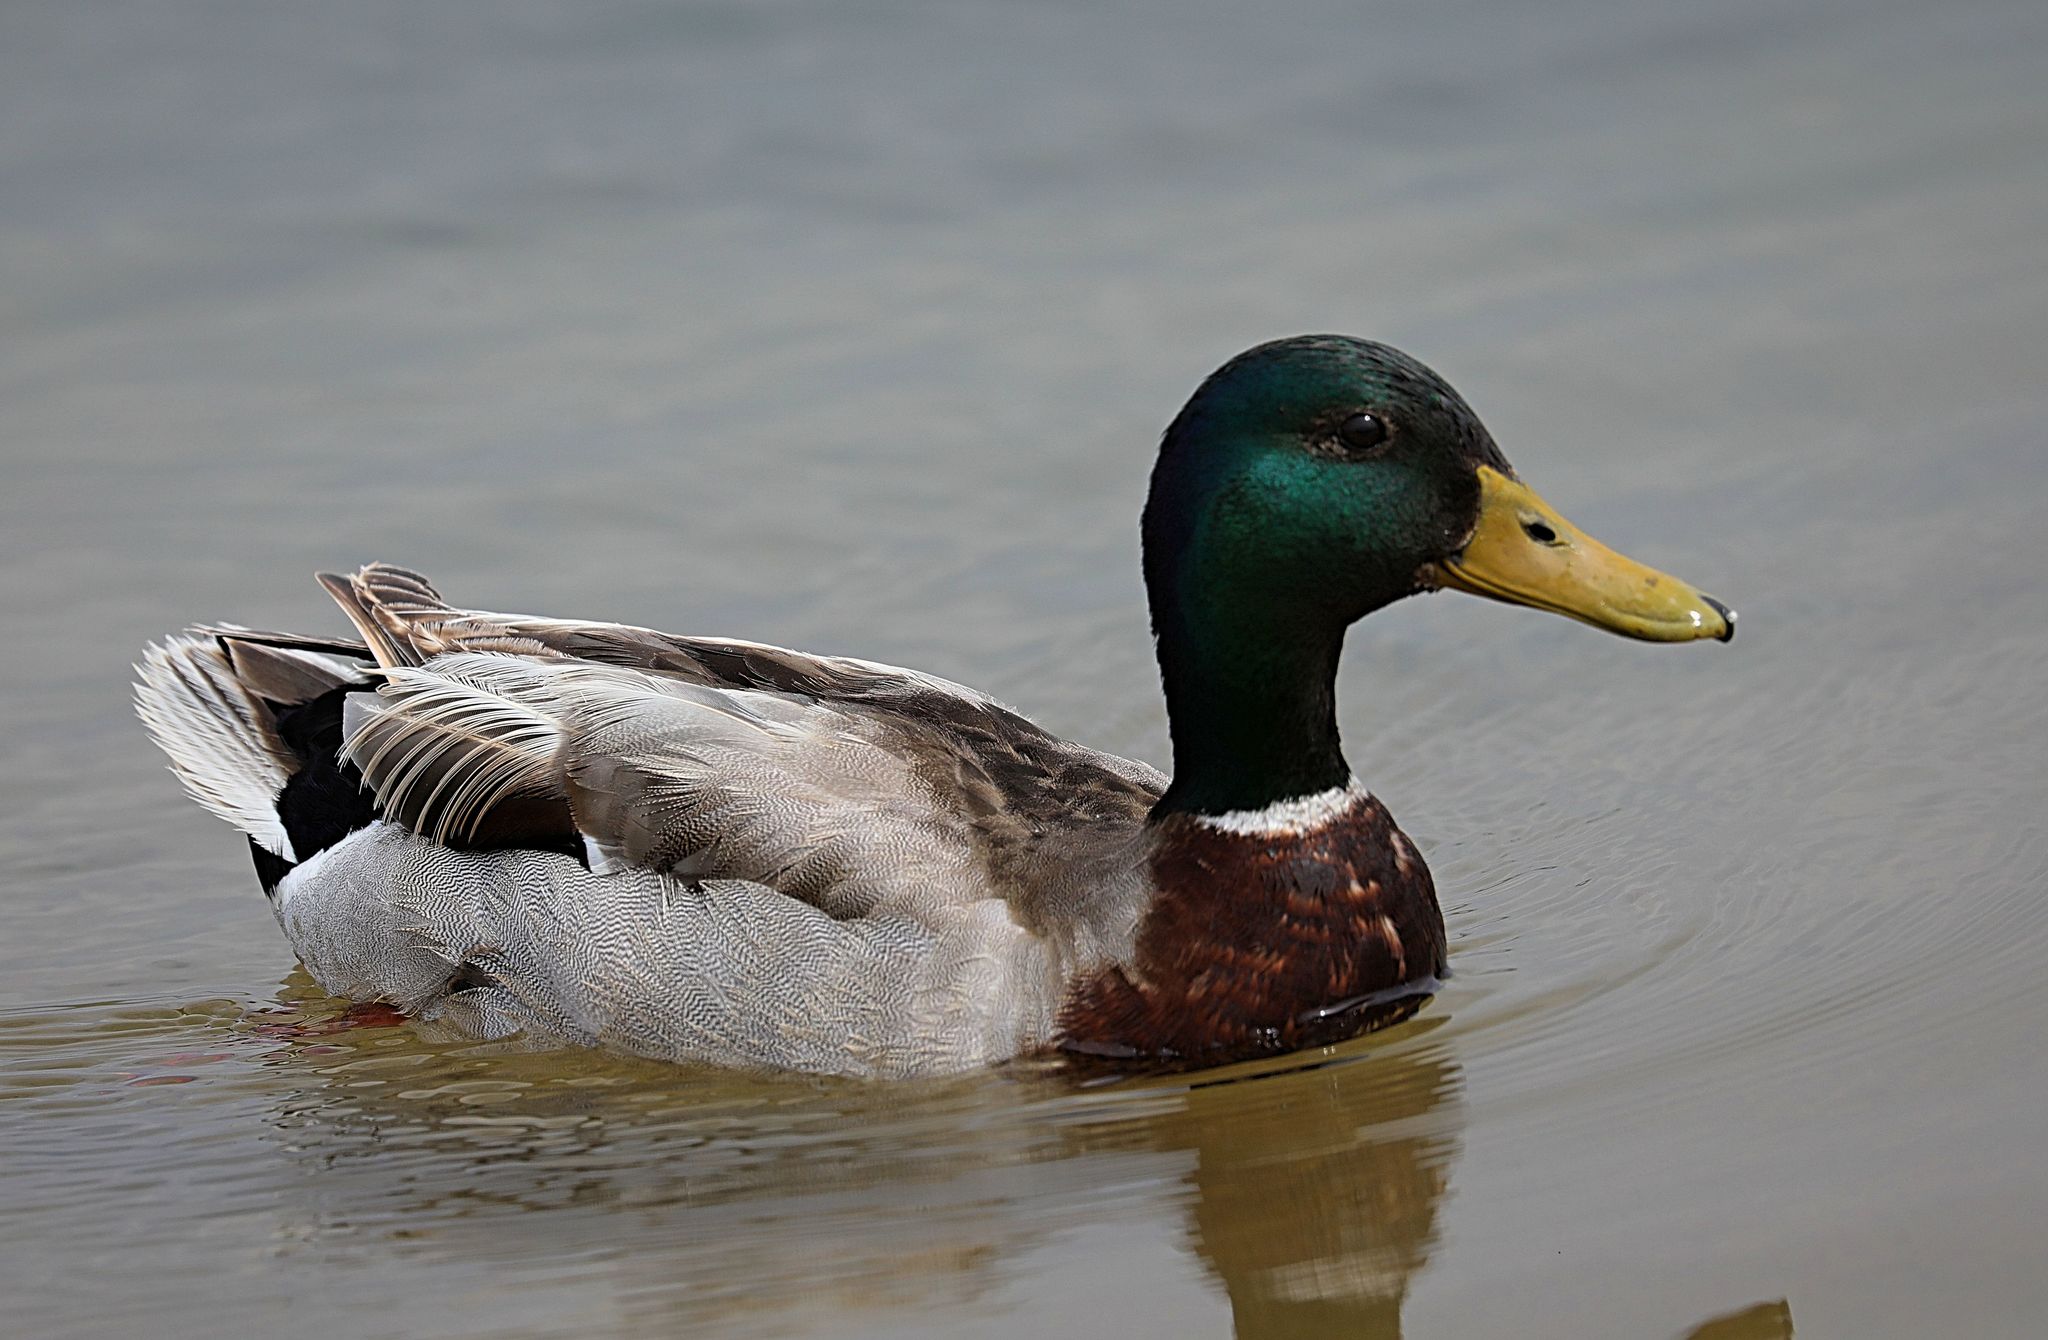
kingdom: Animalia
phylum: Chordata
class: Aves
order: Anseriformes
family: Anatidae
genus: Anas
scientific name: Anas platyrhynchos
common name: Mallard
